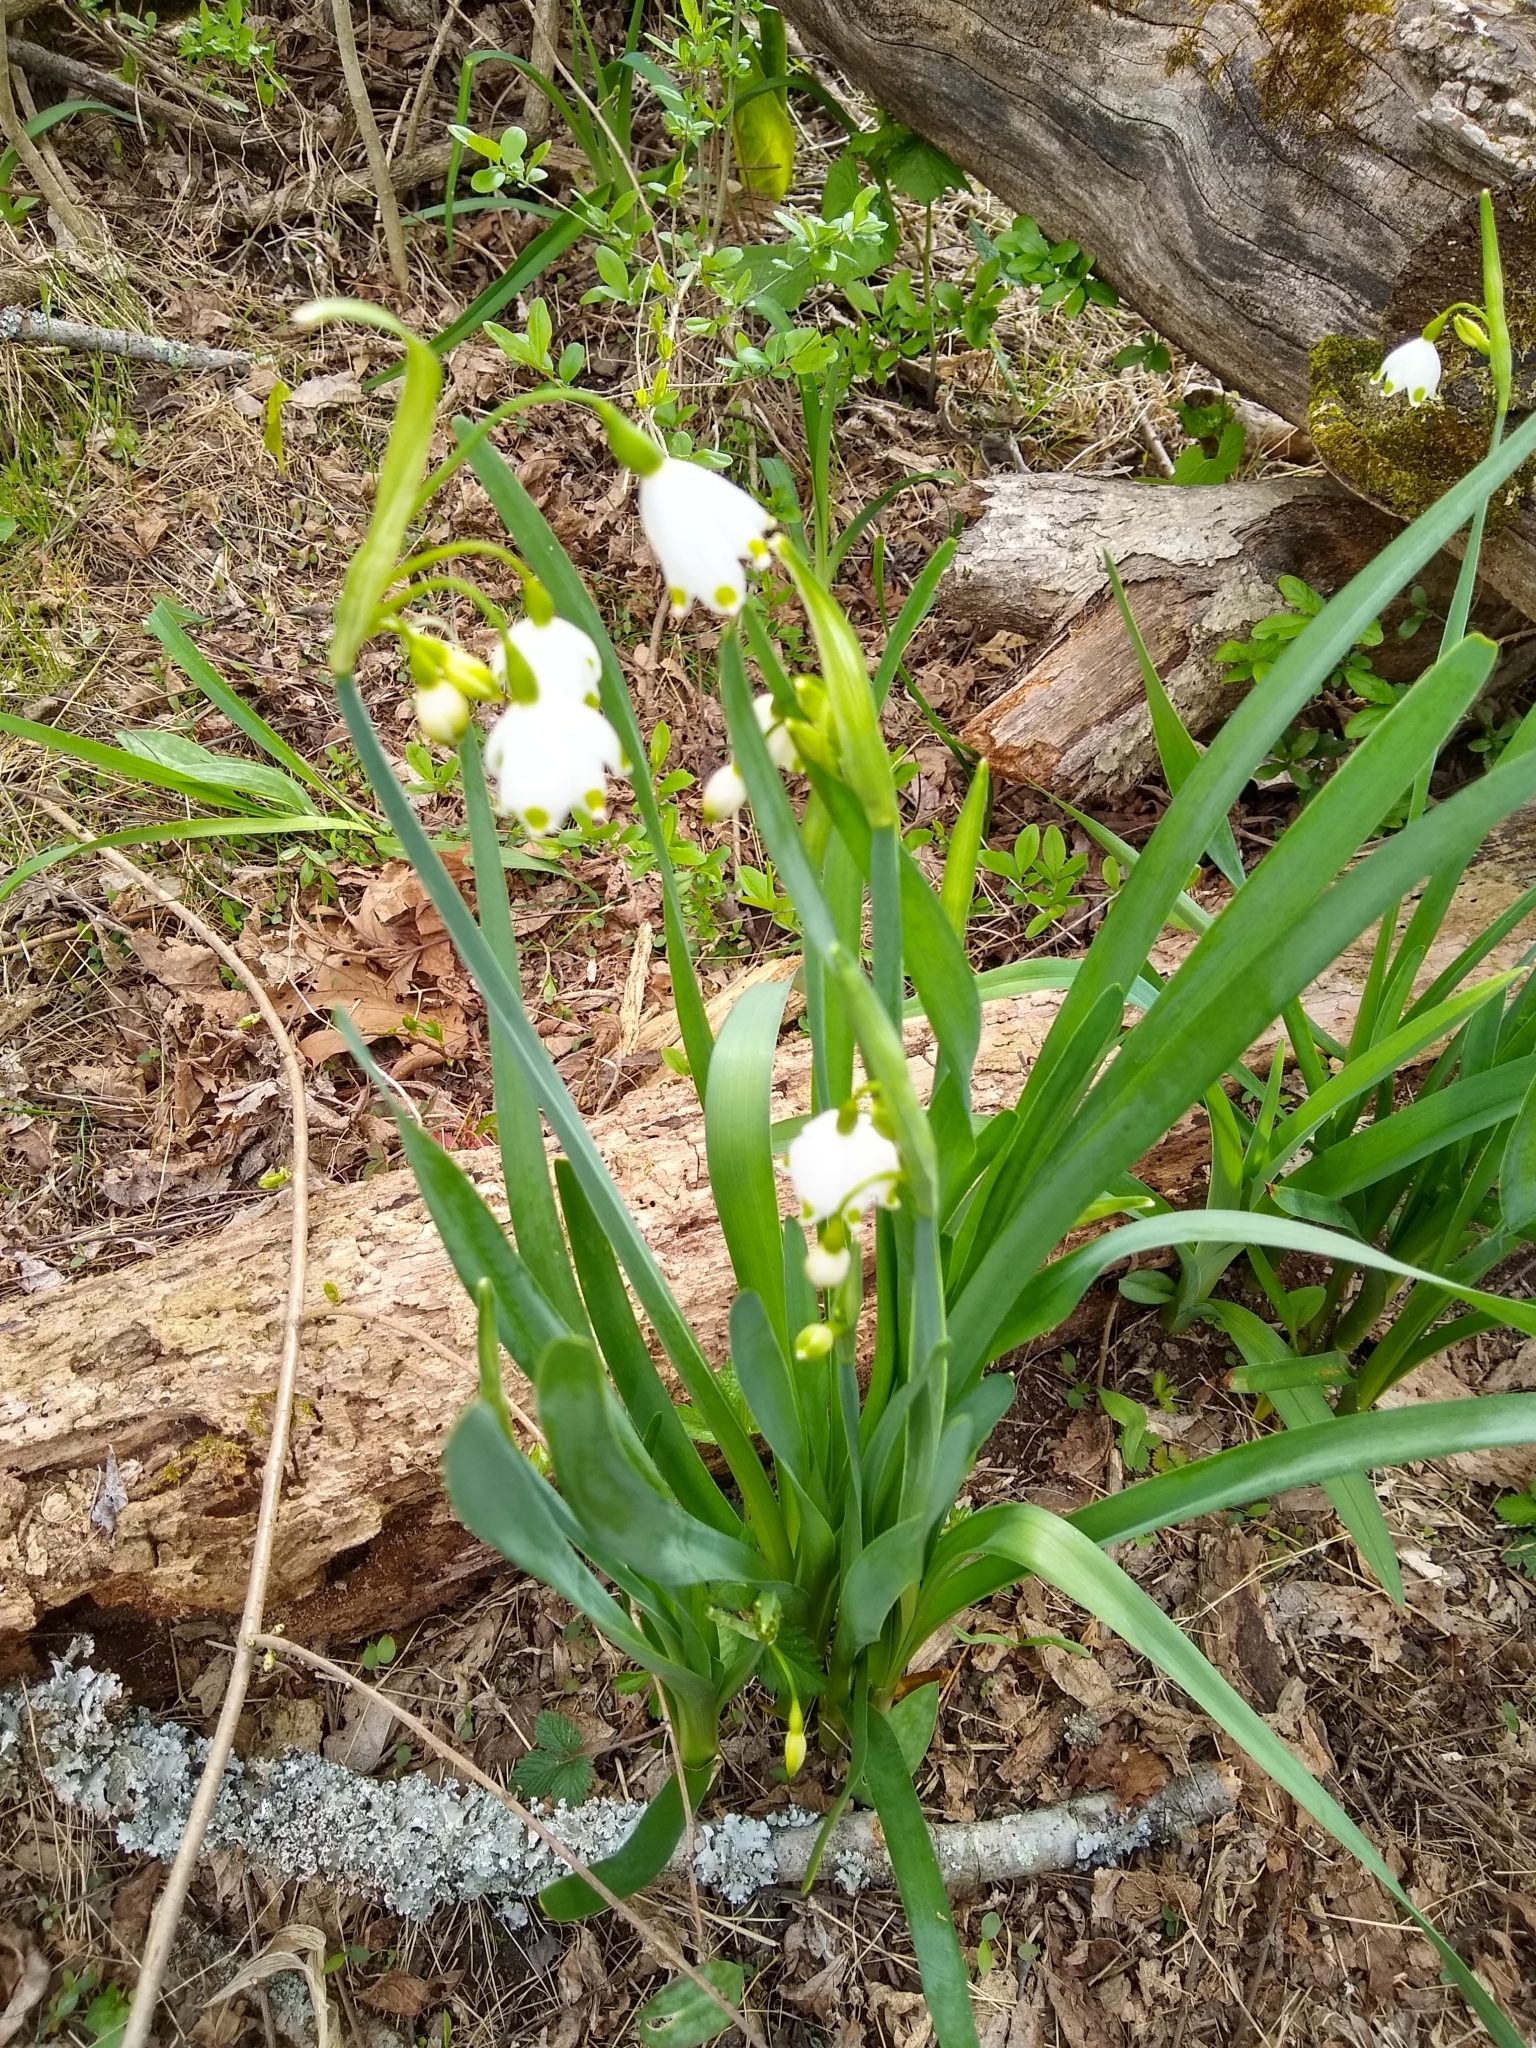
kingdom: Plantae
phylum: Tracheophyta
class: Liliopsida
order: Asparagales
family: Amaryllidaceae
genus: Leucojum
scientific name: Leucojum aestivum
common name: Summer snowflake
